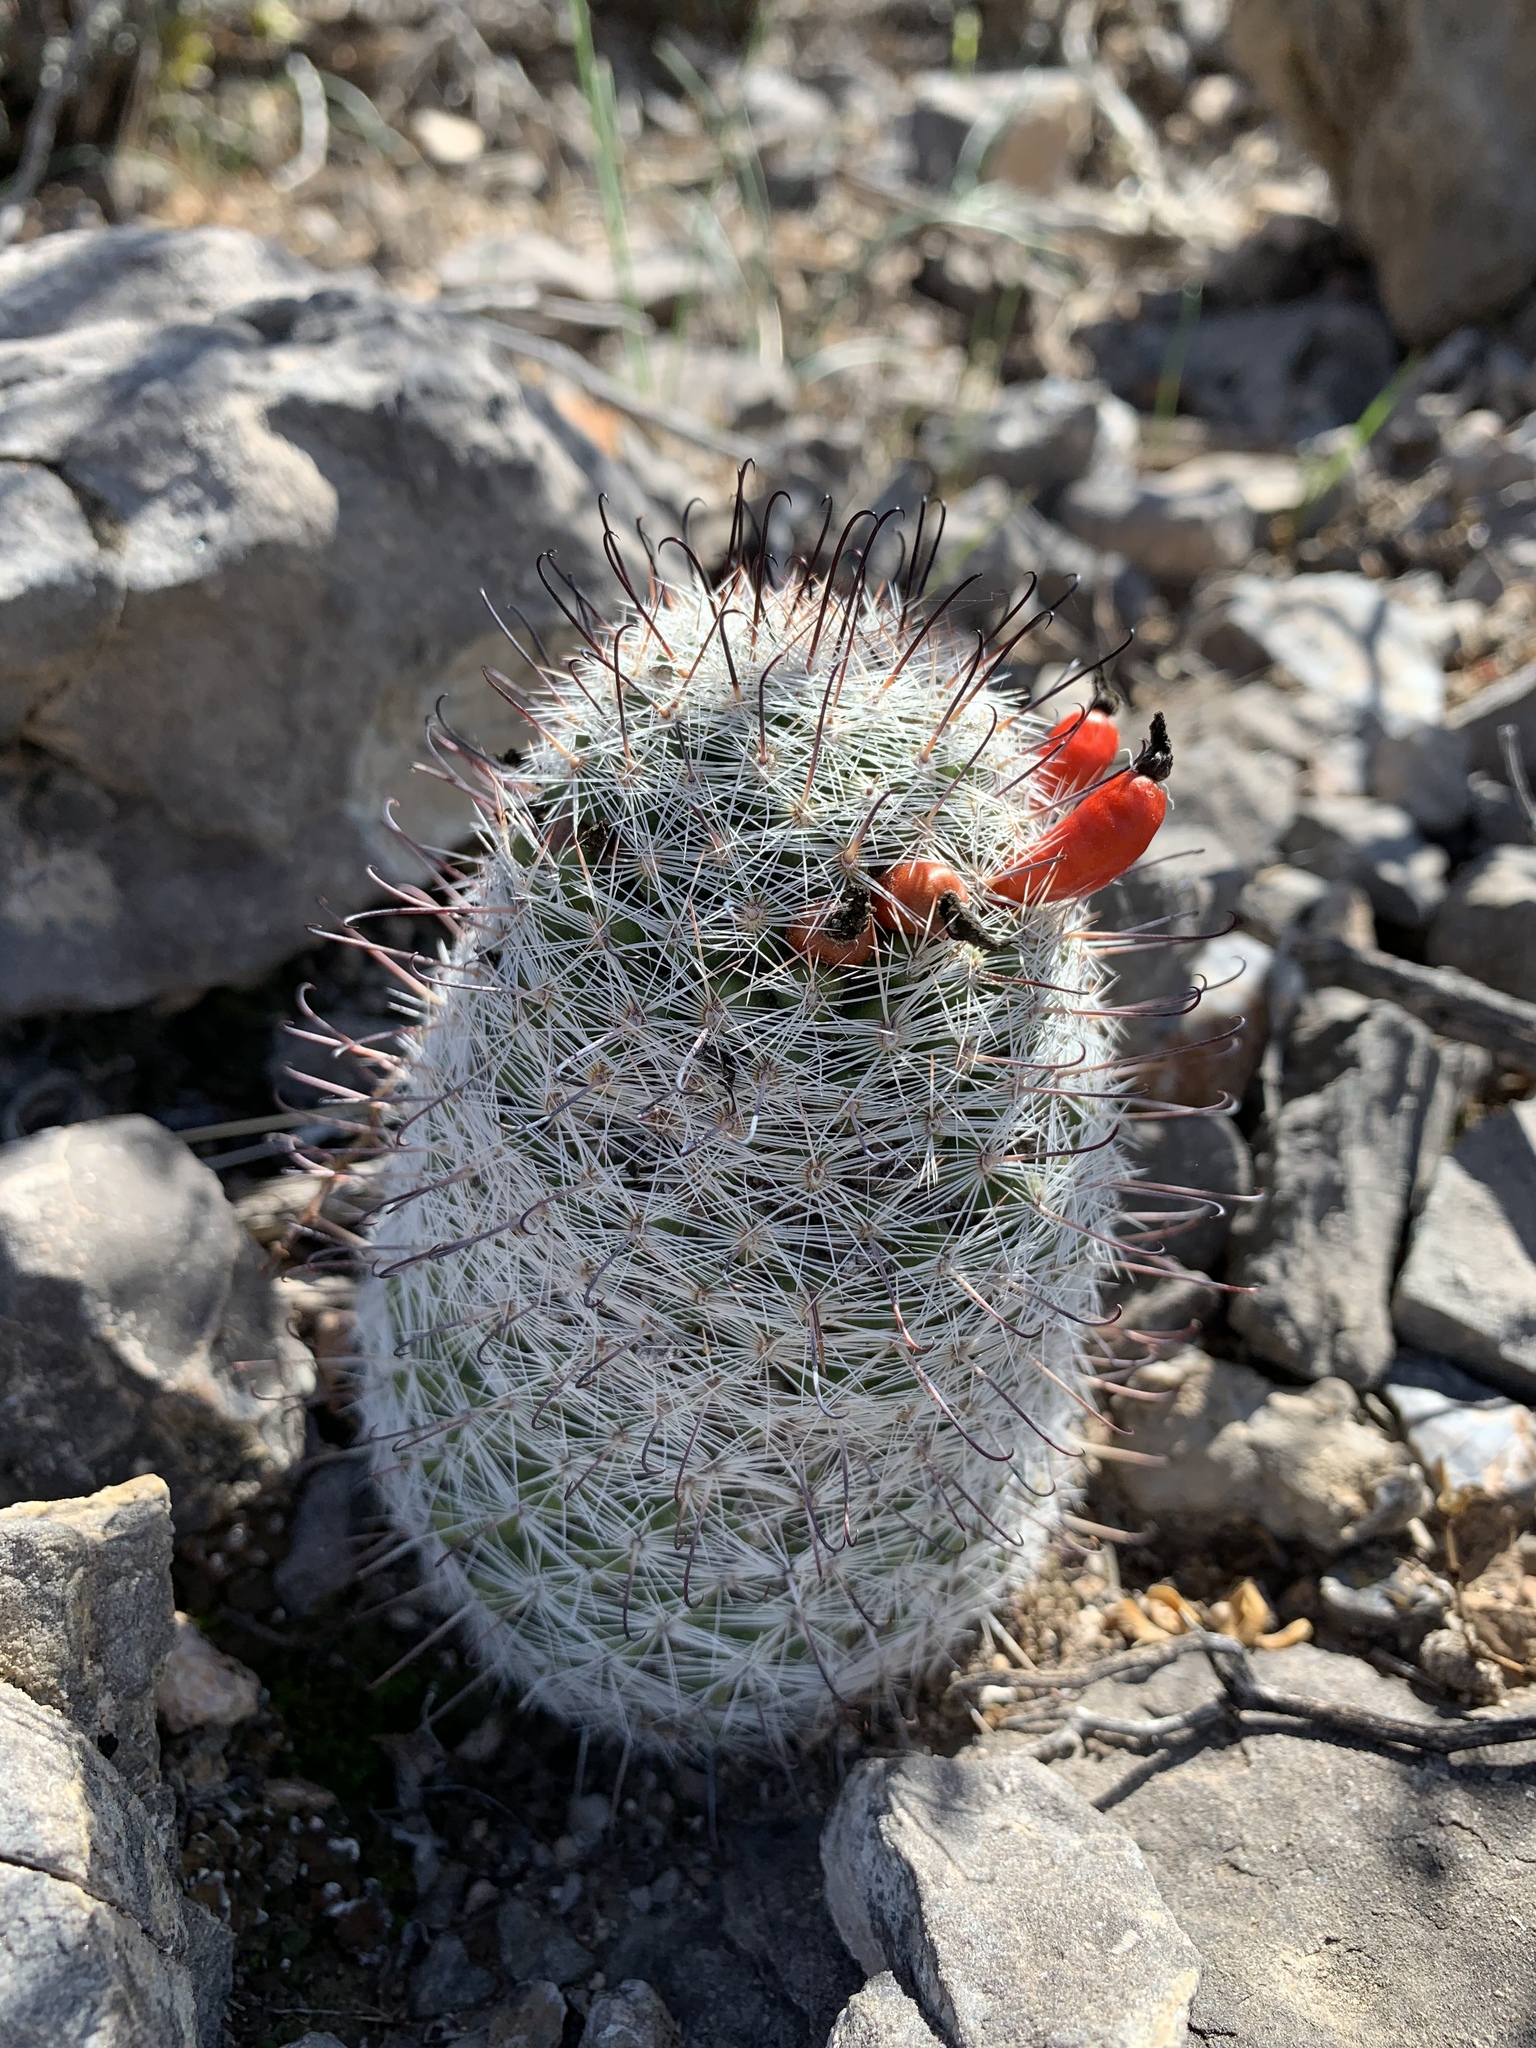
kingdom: Plantae
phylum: Tracheophyta
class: Magnoliopsida
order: Caryophyllales
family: Cactaceae
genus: Cochemiea
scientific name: Cochemiea grahamii
